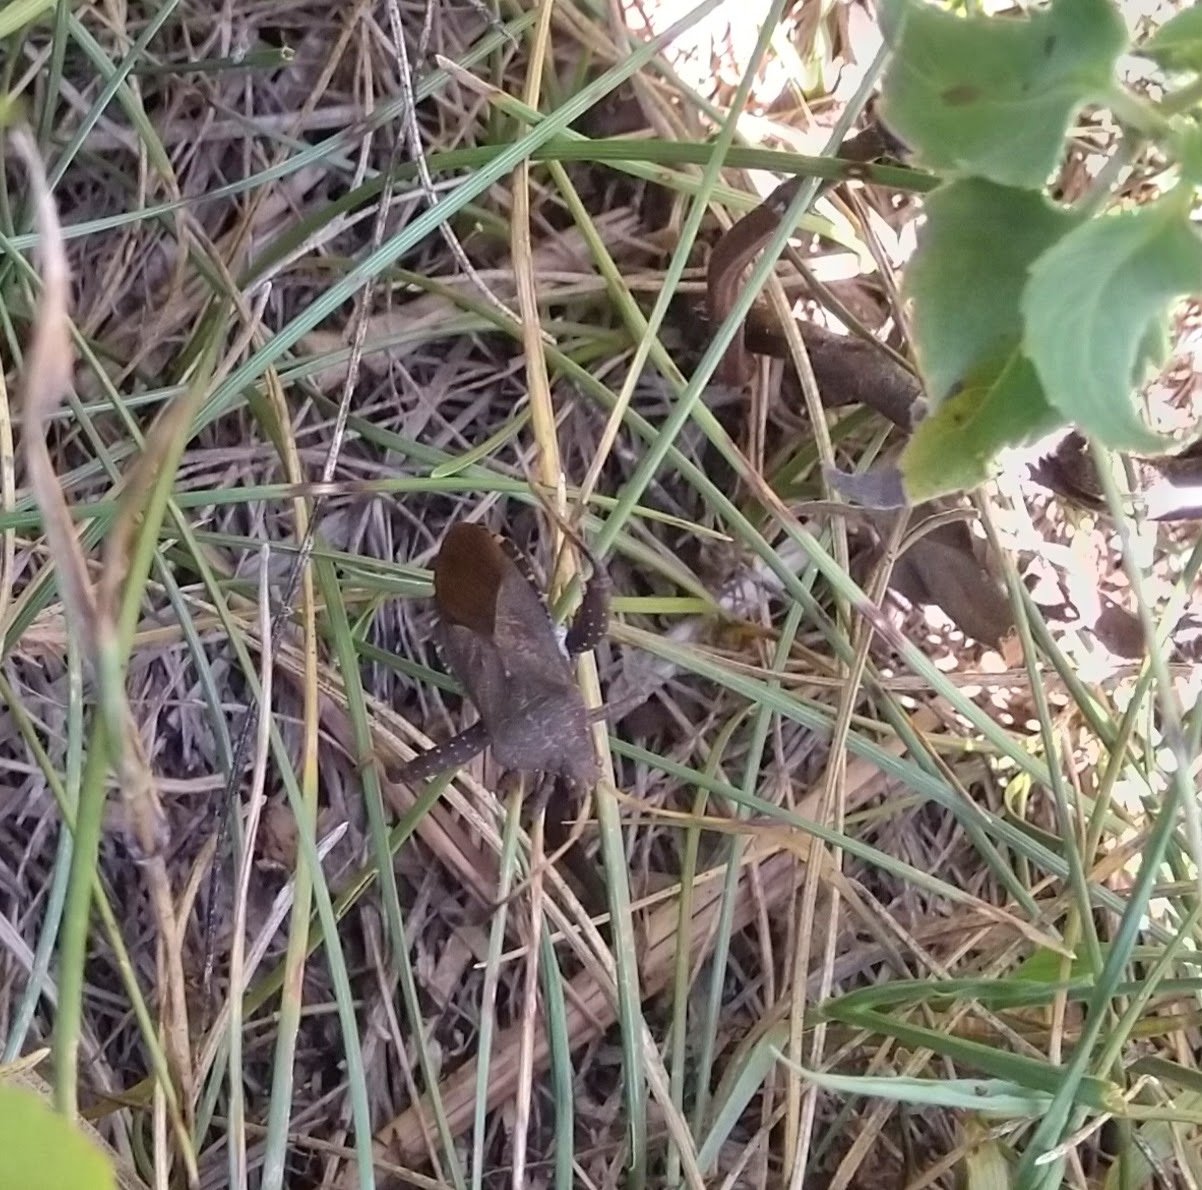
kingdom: Animalia
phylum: Arthropoda
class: Insecta
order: Hemiptera
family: Coreidae
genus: Euthochtha
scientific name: Euthochtha galeator
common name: Helmeted squash bug
